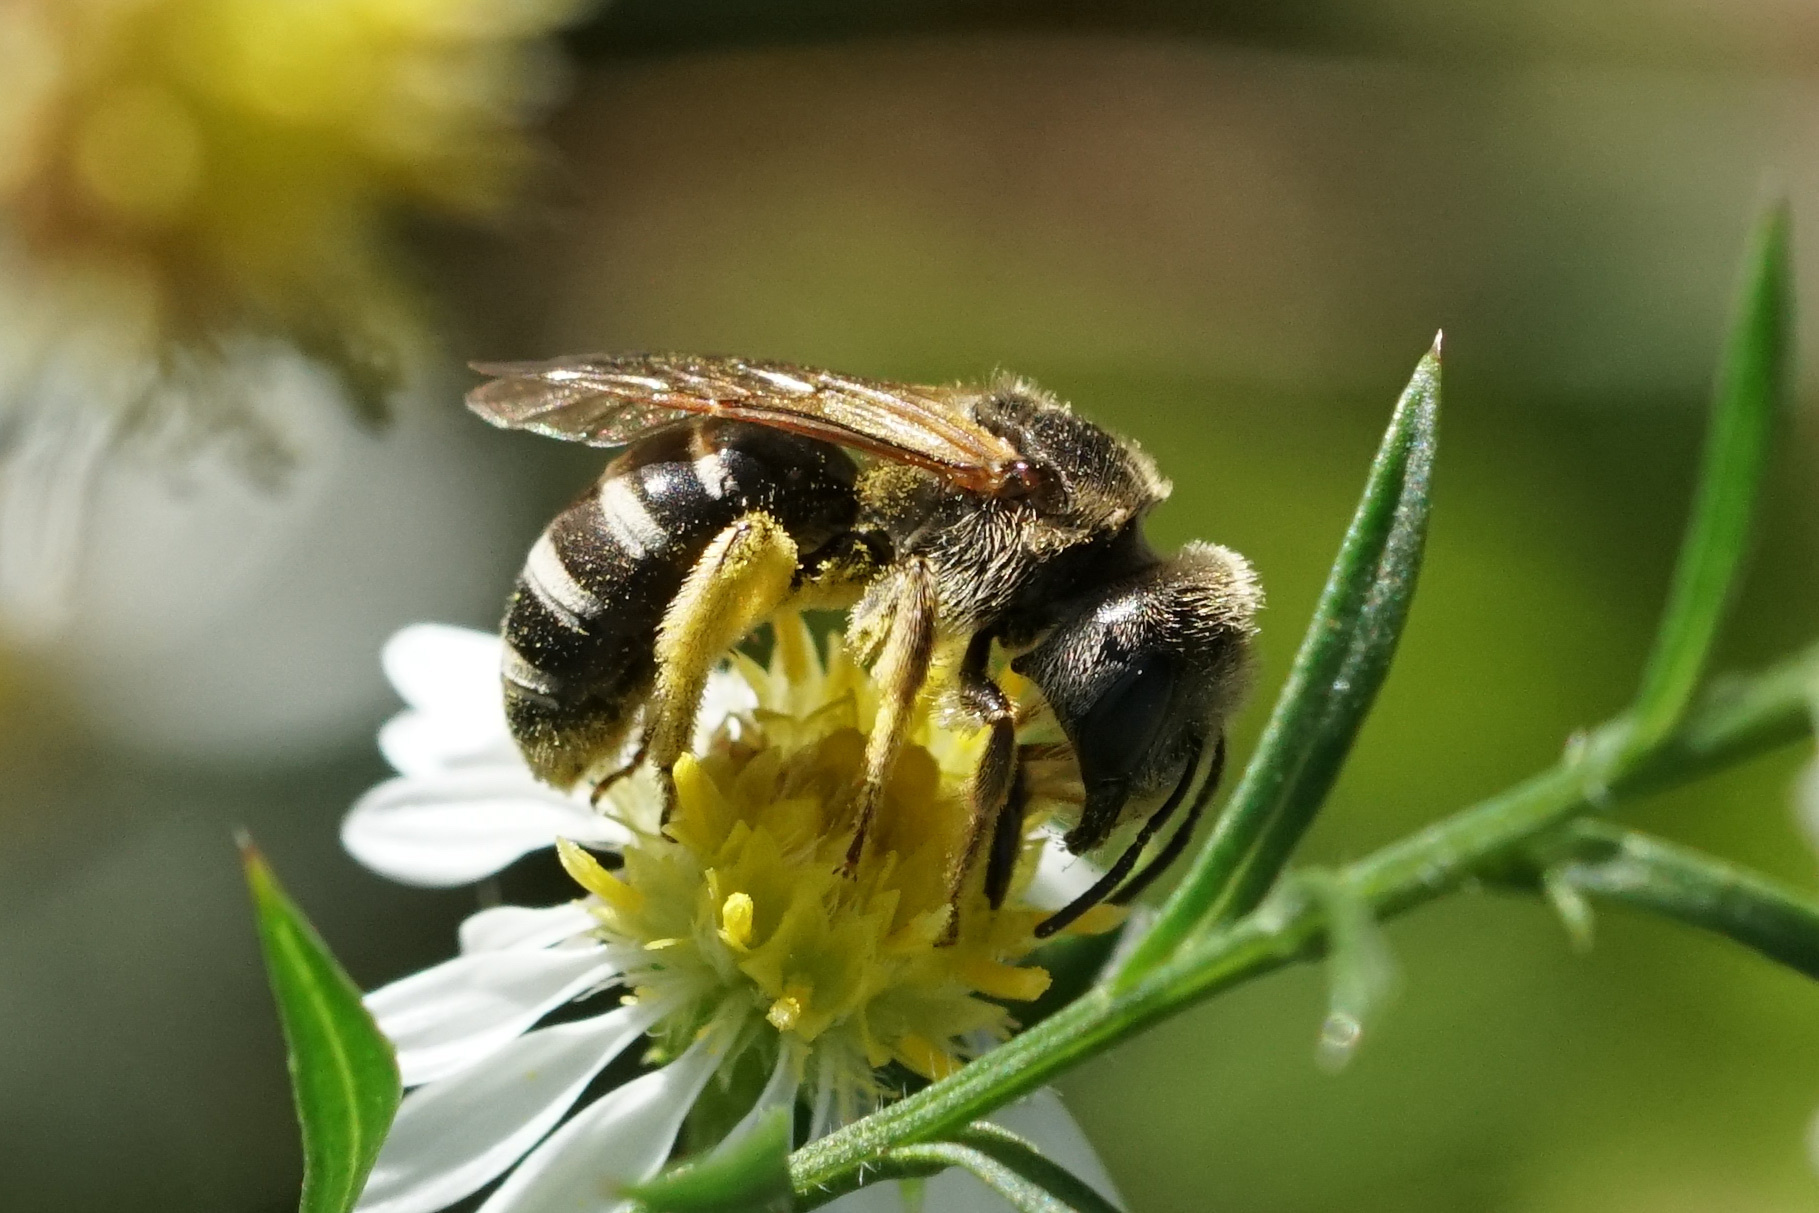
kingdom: Animalia
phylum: Arthropoda
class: Insecta
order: Hymenoptera
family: Halictidae
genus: Halictus
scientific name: Halictus ligatus
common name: Ligated furrow bee
